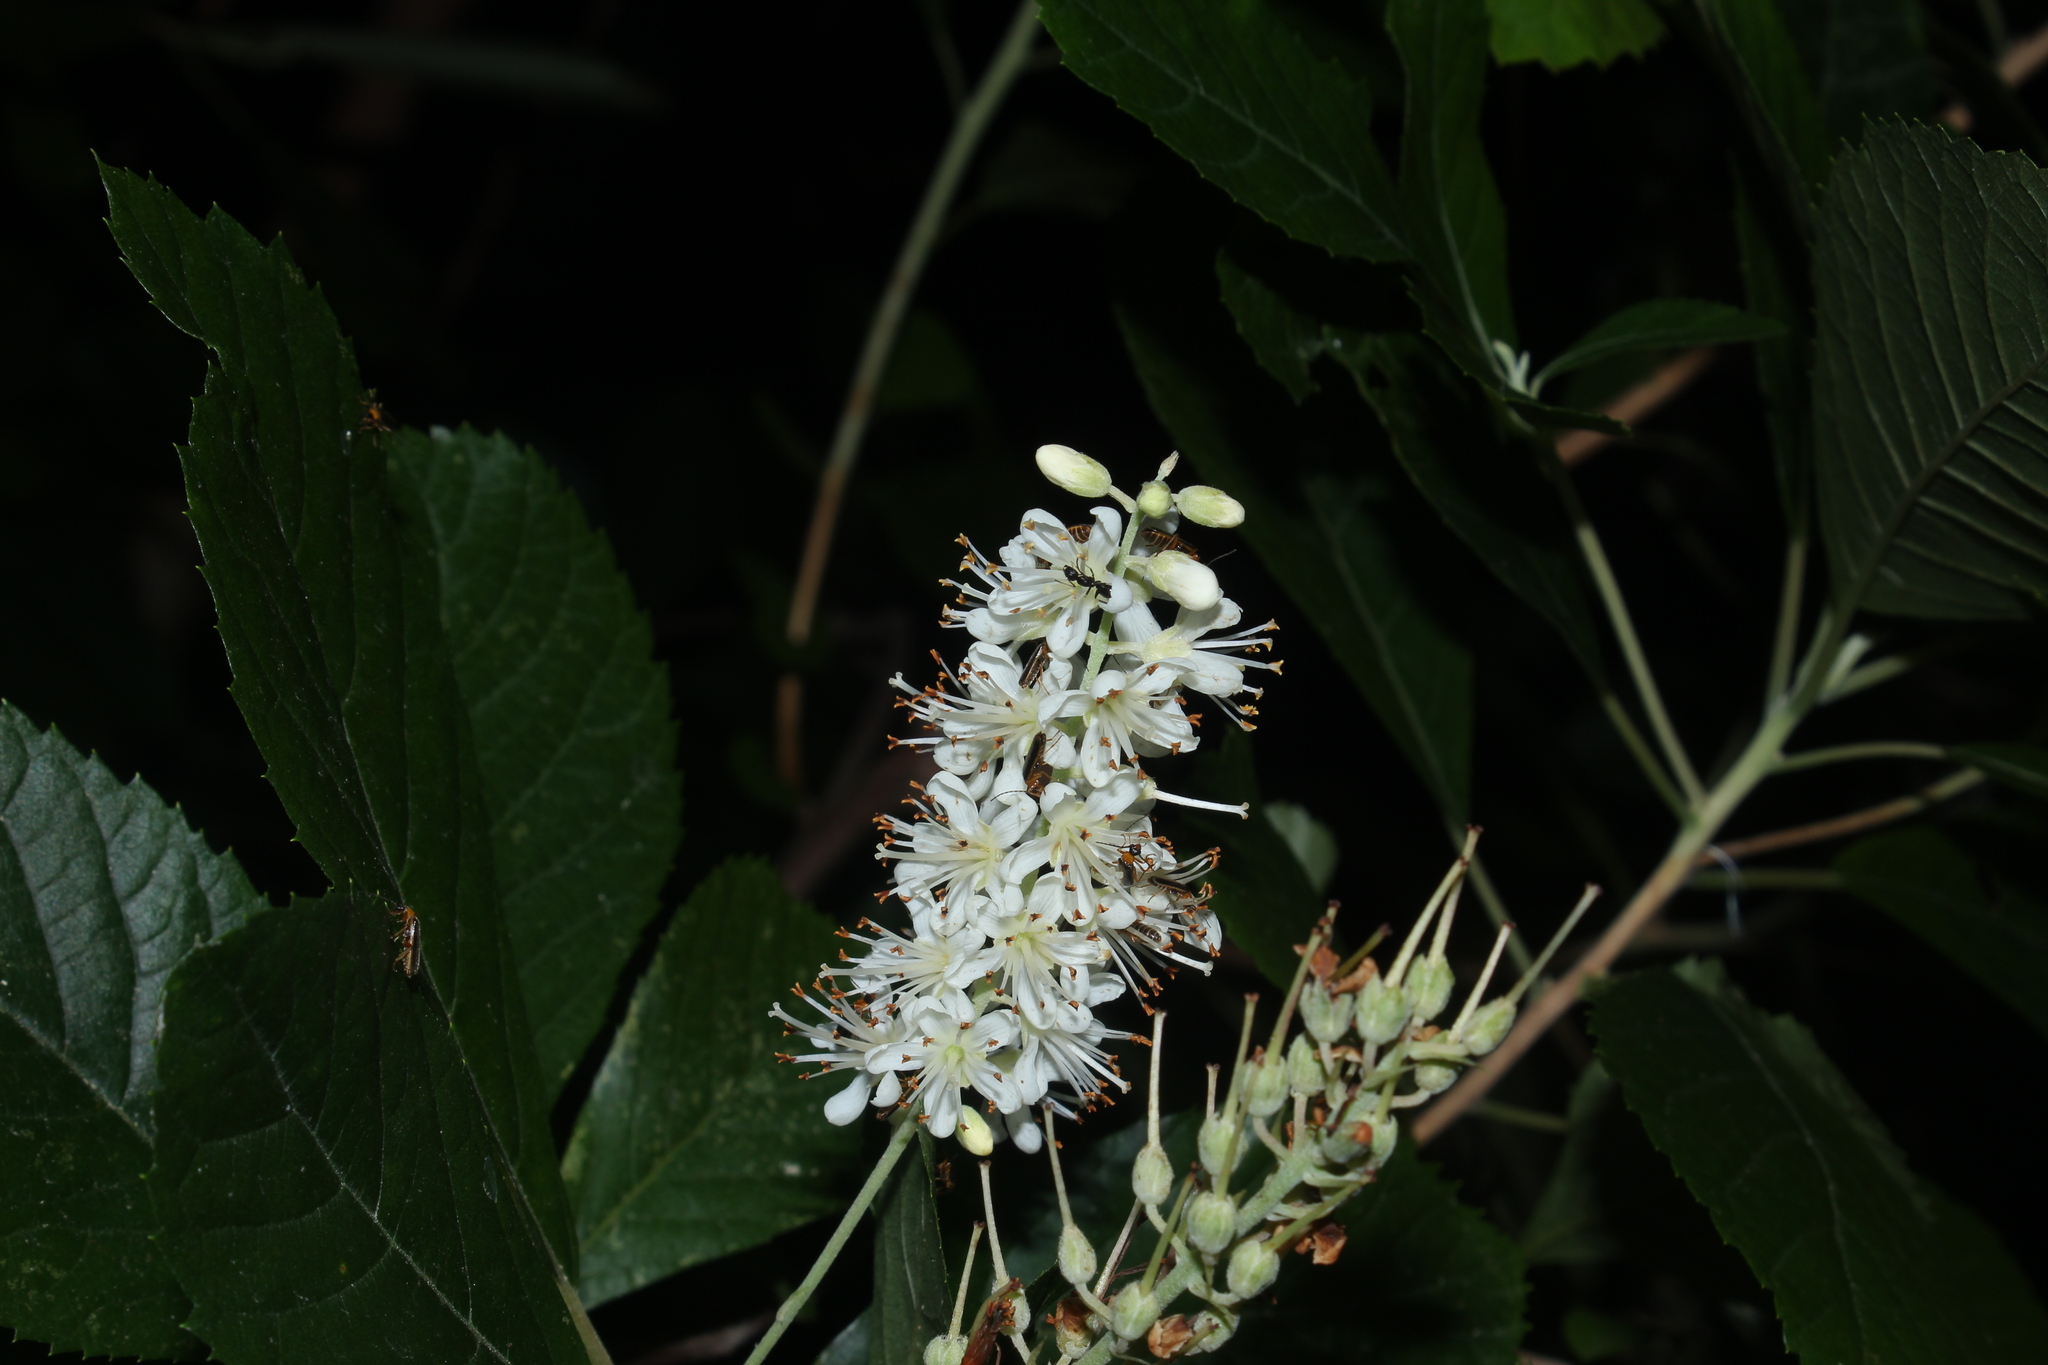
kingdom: Plantae
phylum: Tracheophyta
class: Magnoliopsida
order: Ericales
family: Clethraceae
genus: Clethra
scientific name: Clethra alnifolia
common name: Sweet pepperbush
